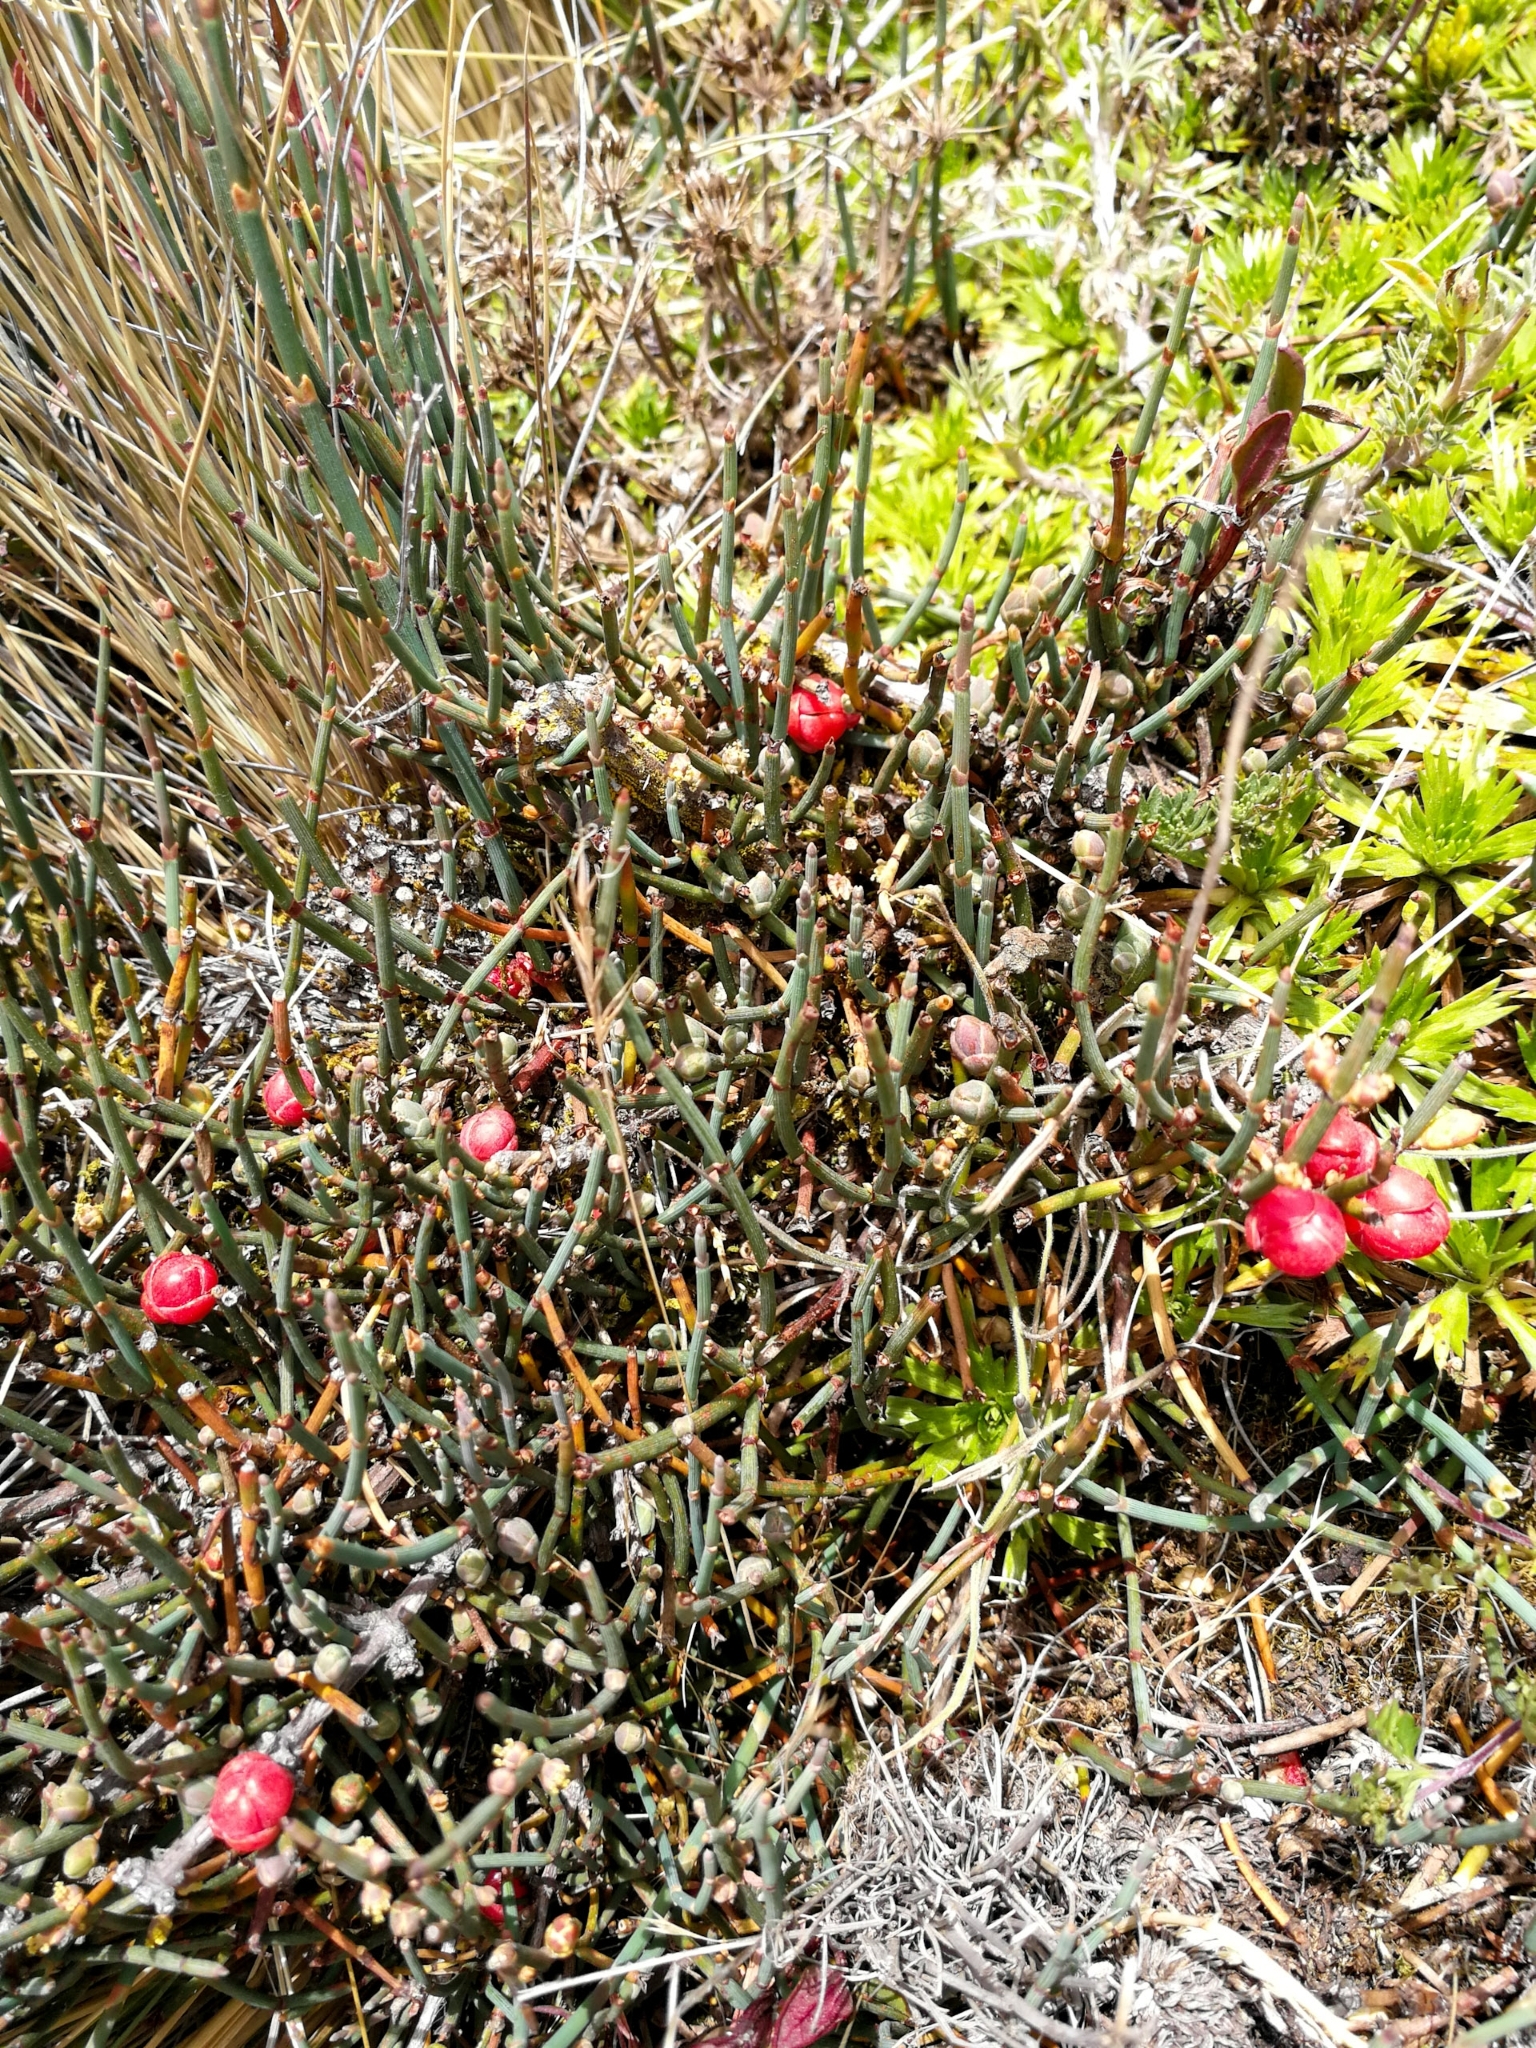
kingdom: Plantae
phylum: Tracheophyta
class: Gnetopsida
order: Ephedrales
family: Ephedraceae
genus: Ephedra
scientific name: Ephedra rupestris
